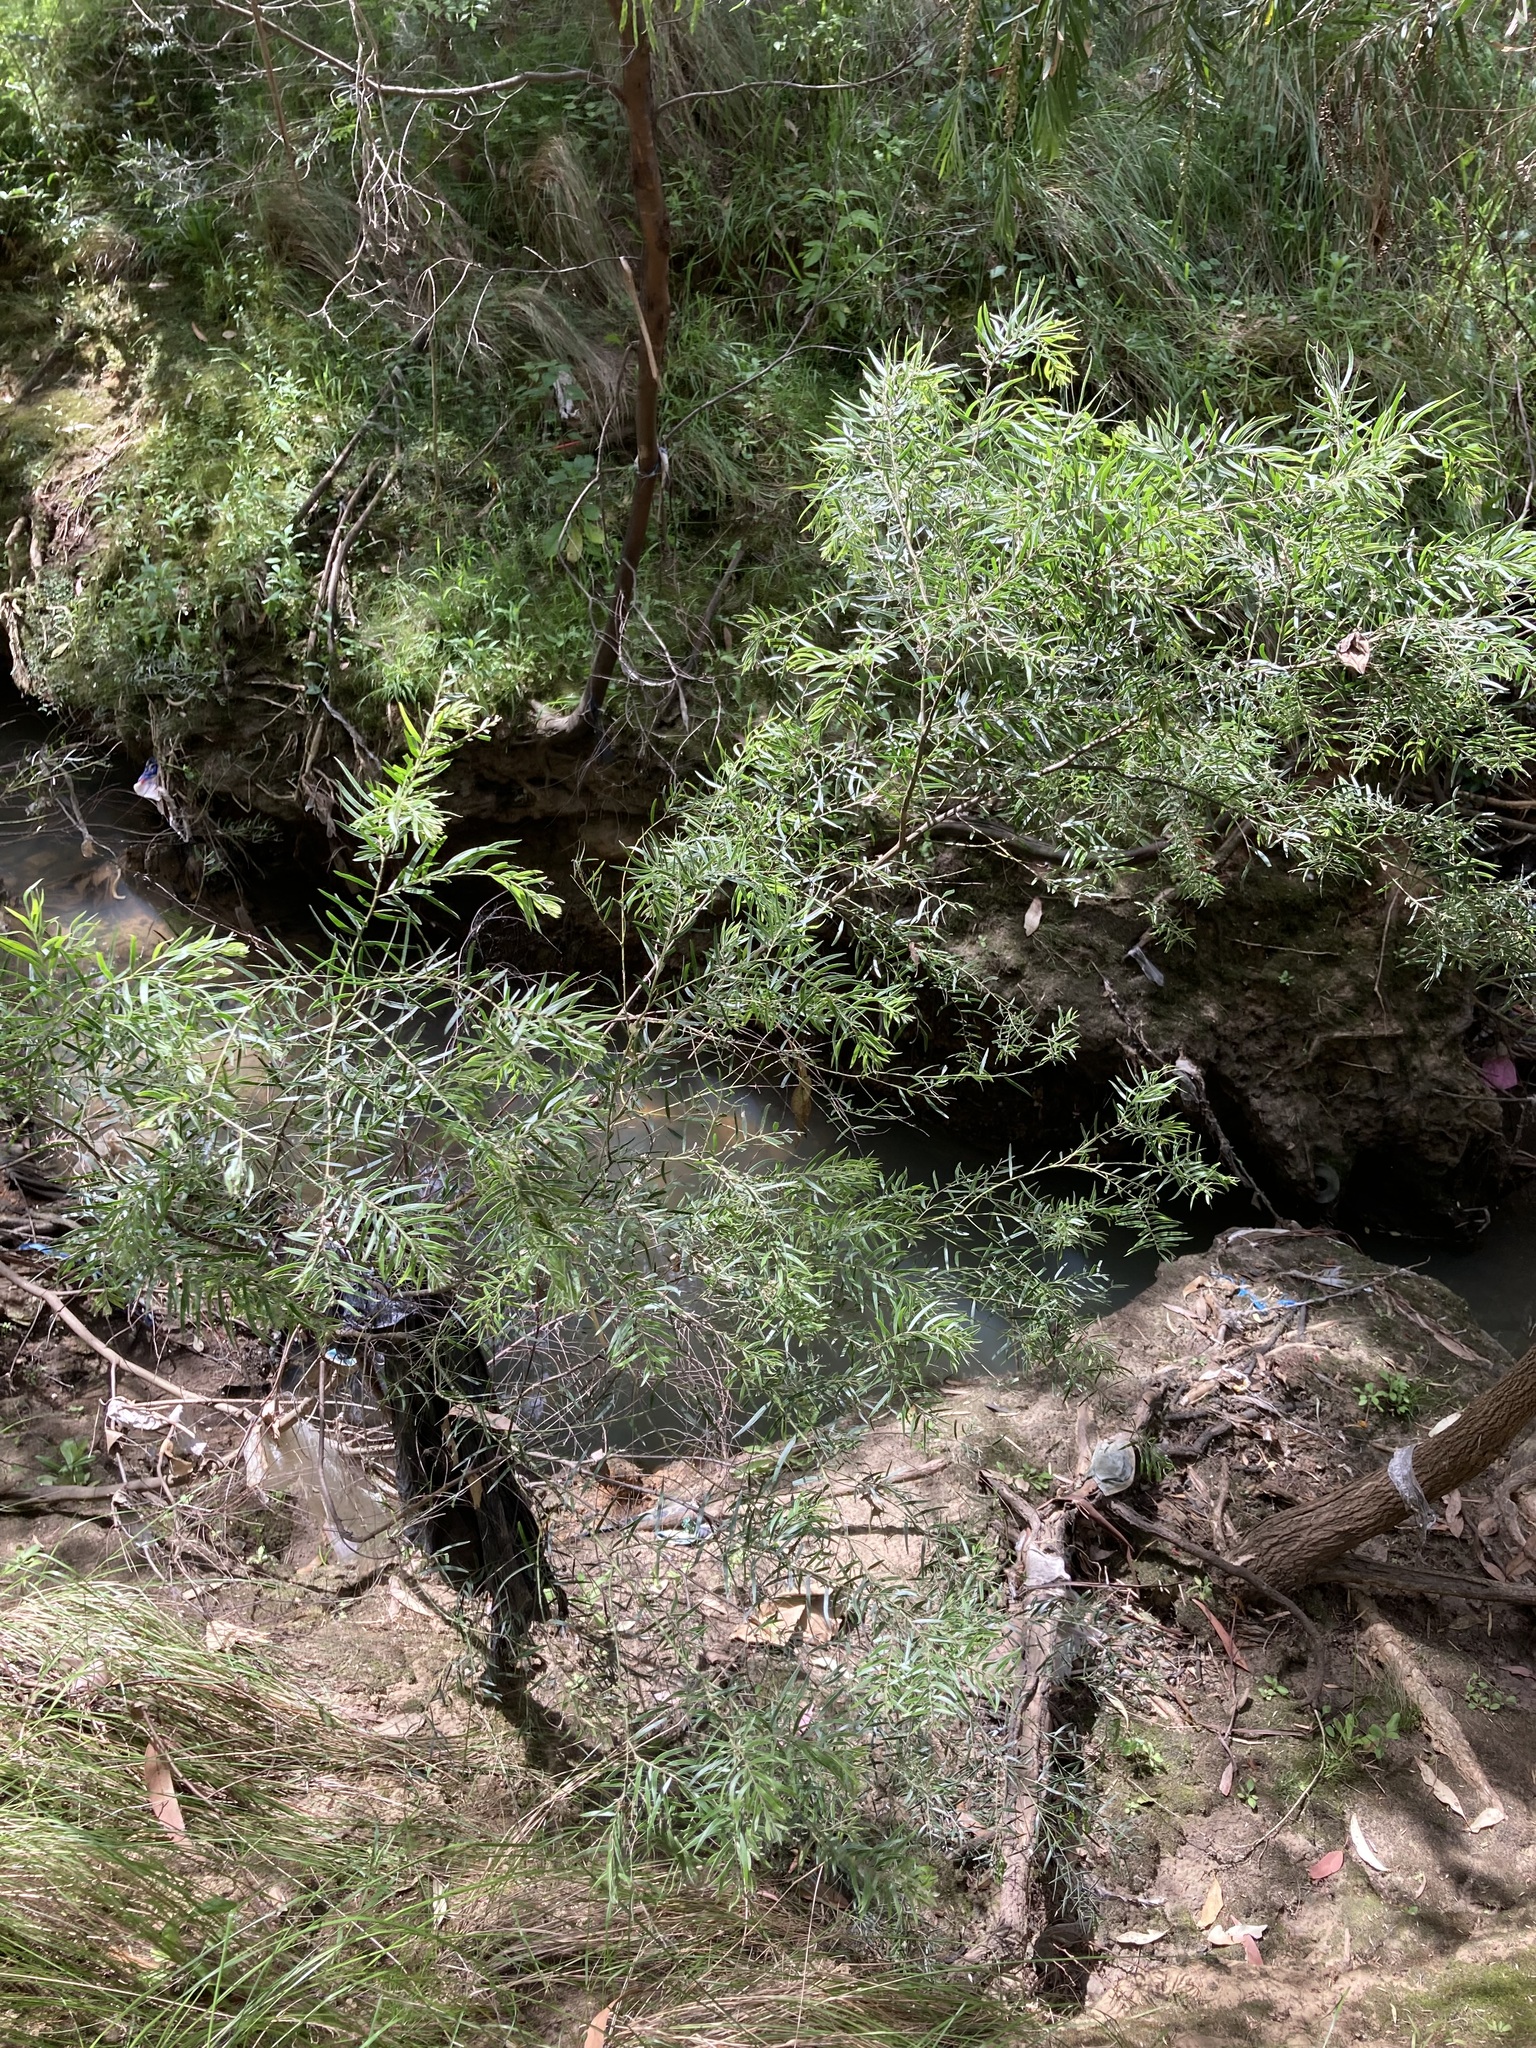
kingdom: Plantae
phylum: Tracheophyta
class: Magnoliopsida
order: Fabales
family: Fabaceae
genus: Acacia
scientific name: Acacia fimbriata
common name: Brisbane golden wattle
